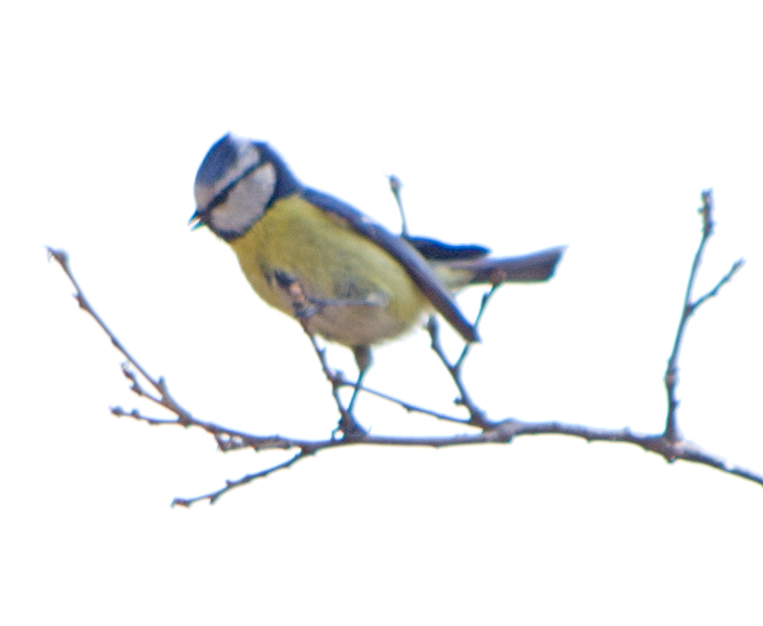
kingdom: Animalia
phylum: Chordata
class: Aves
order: Passeriformes
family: Paridae
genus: Cyanistes
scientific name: Cyanistes caeruleus
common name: Eurasian blue tit
